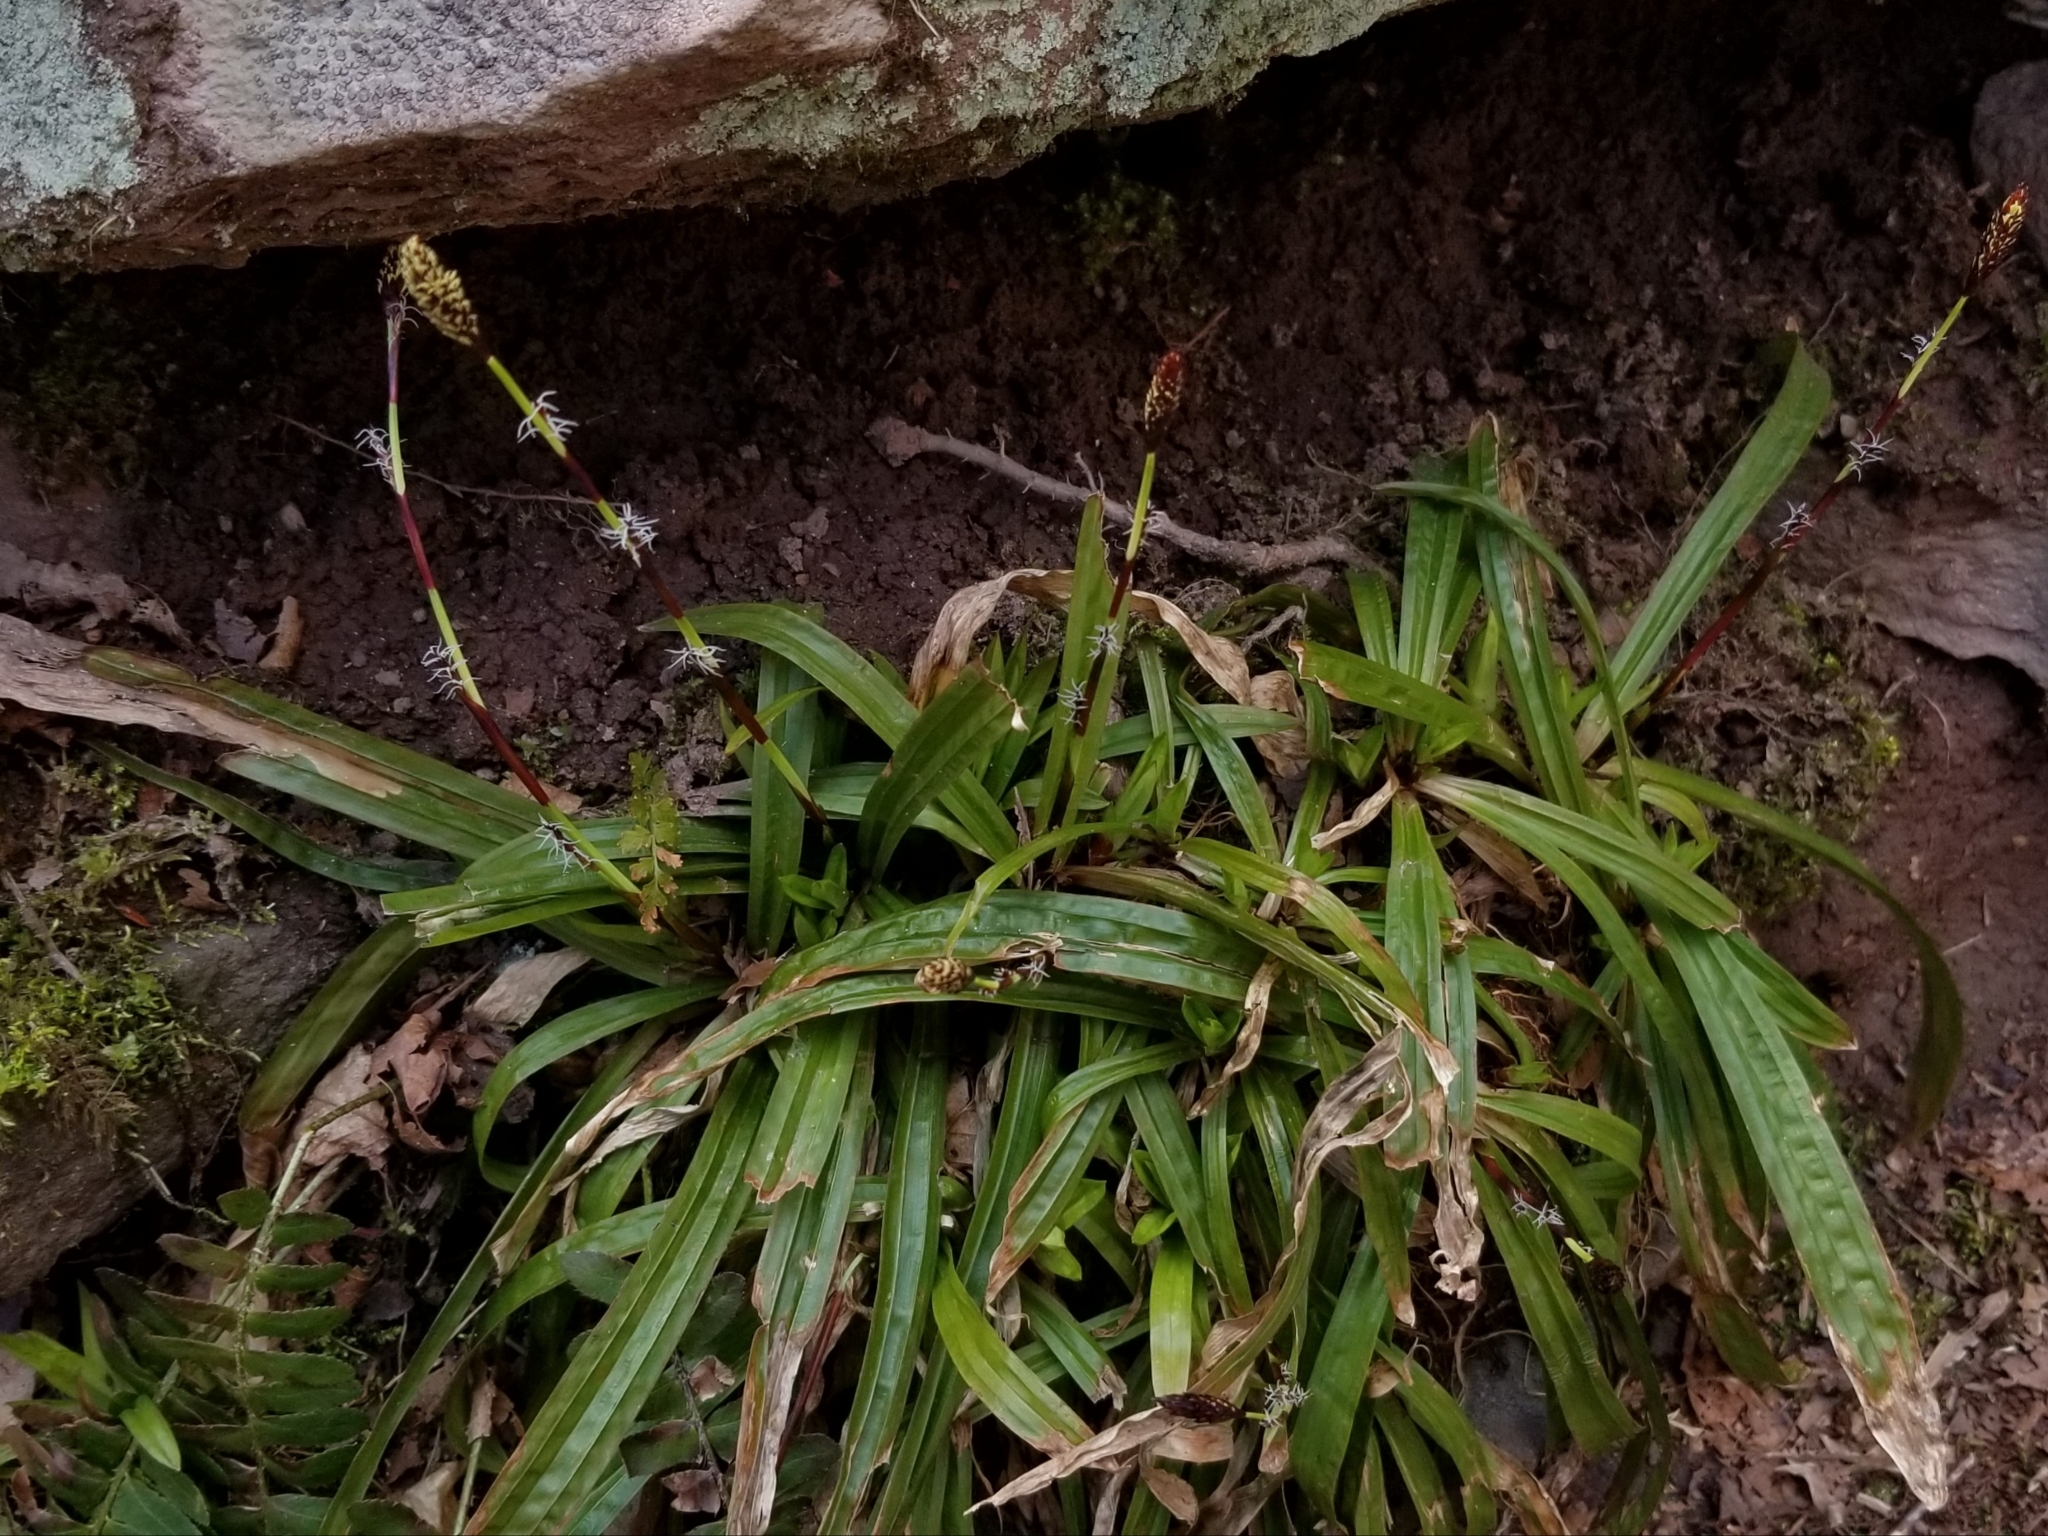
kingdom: Plantae
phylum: Tracheophyta
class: Liliopsida
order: Poales
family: Cyperaceae
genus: Carex
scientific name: Carex plantaginea
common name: Plantain-leaved sedge
